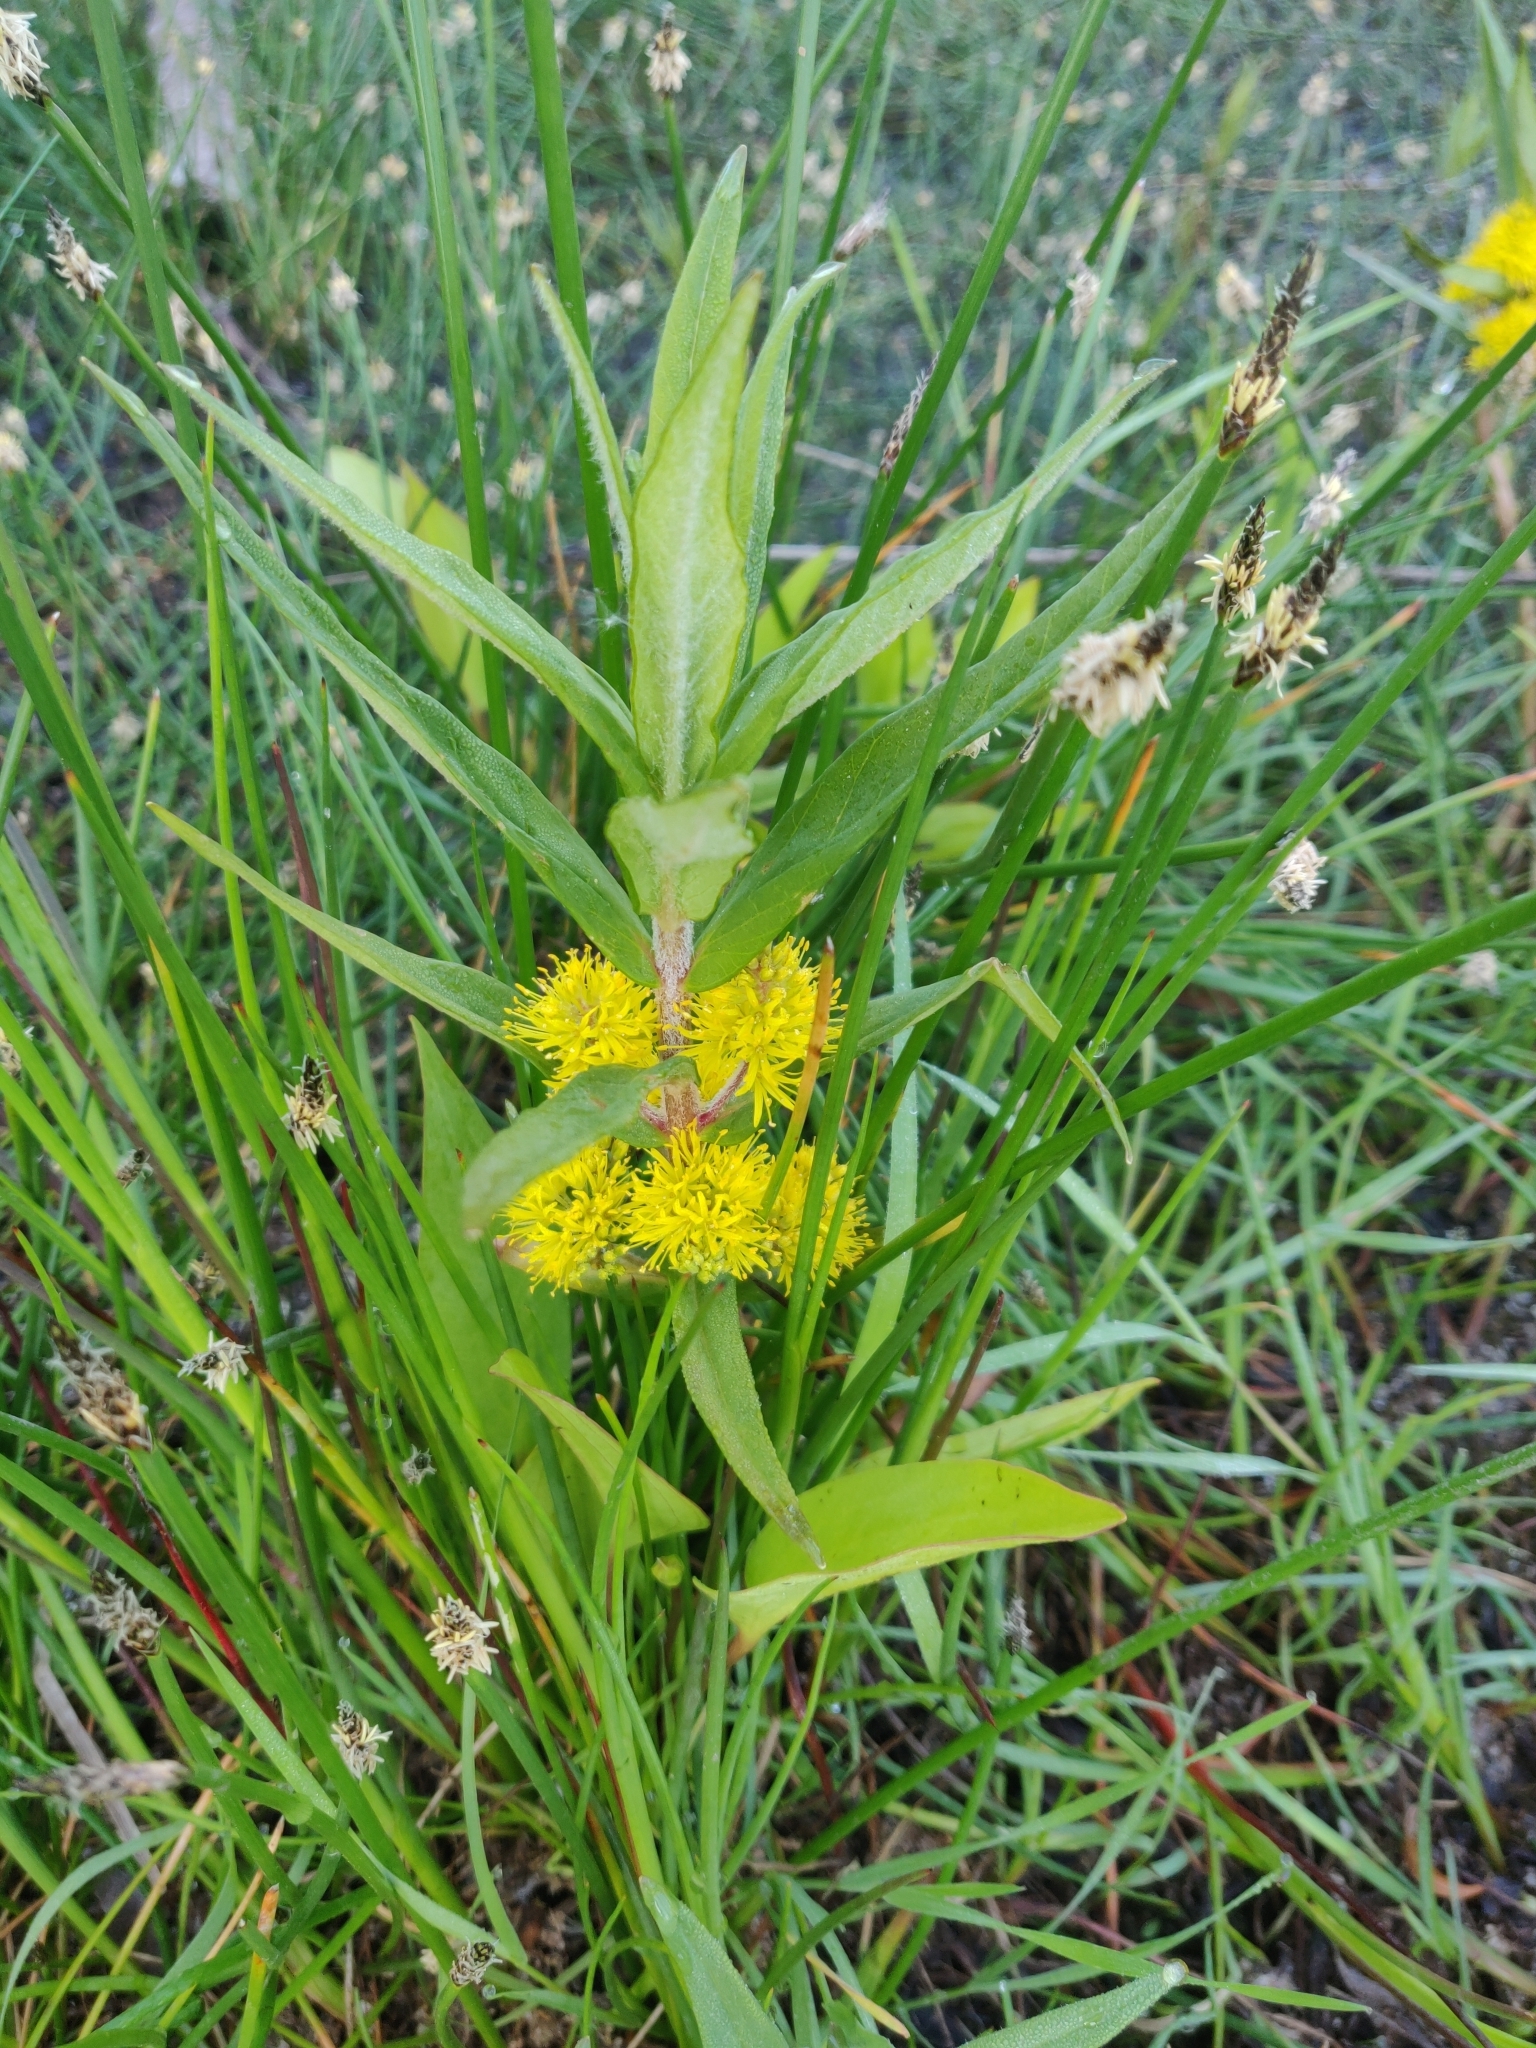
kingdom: Plantae
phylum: Tracheophyta
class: Magnoliopsida
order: Ericales
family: Primulaceae
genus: Lysimachia
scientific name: Lysimachia thyrsiflora
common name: Tufted loosestrife
